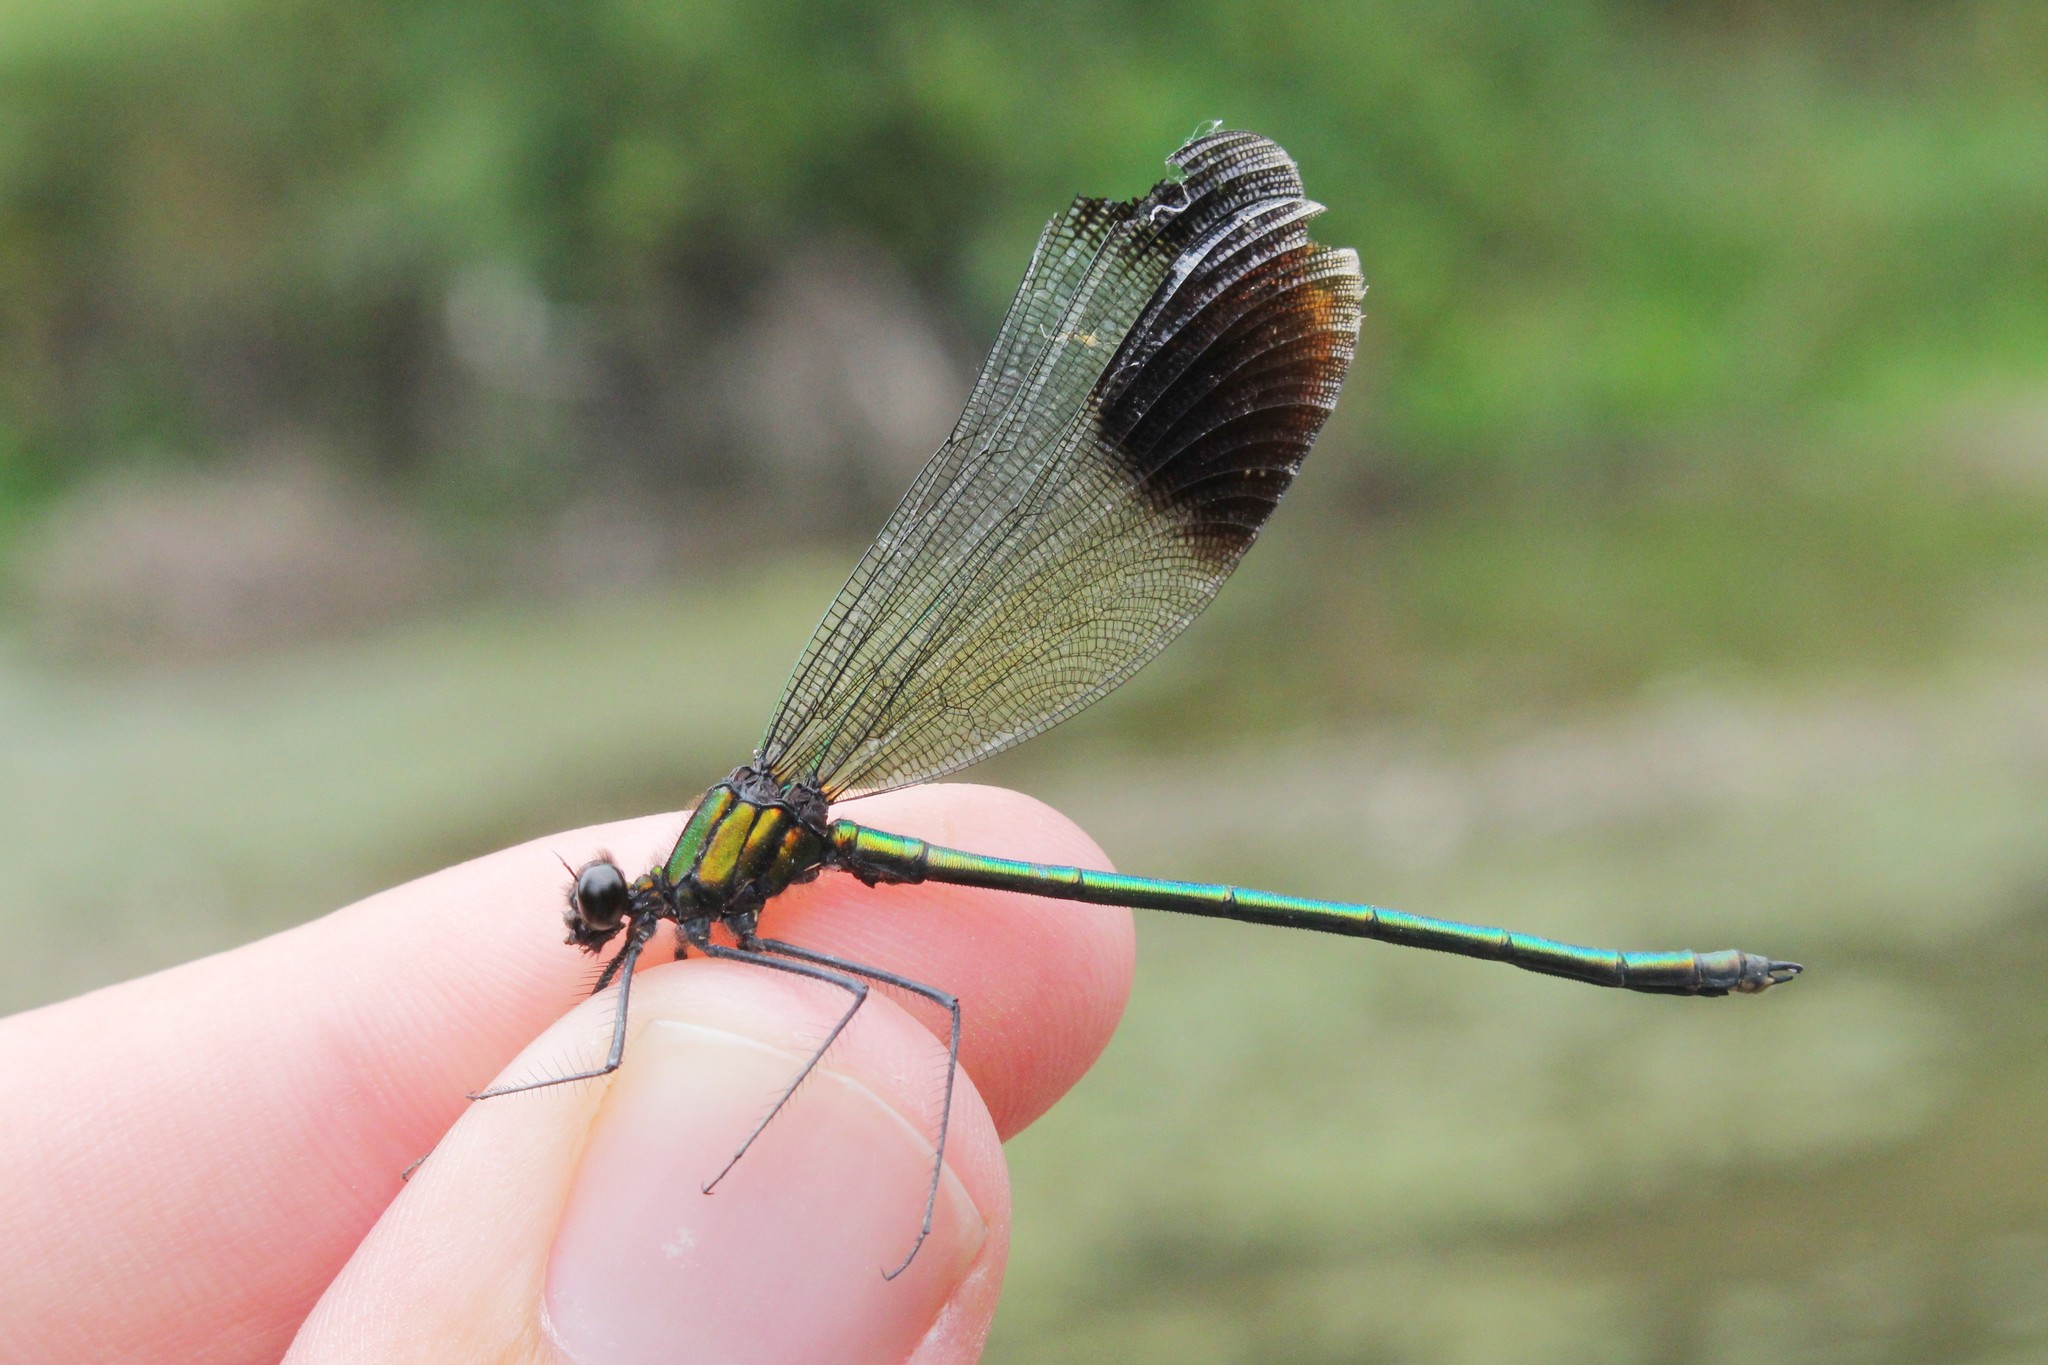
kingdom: Animalia
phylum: Arthropoda
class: Insecta
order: Odonata
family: Calopterygidae
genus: Calopteryx
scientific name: Calopteryx aequabilis
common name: River jewelwing
